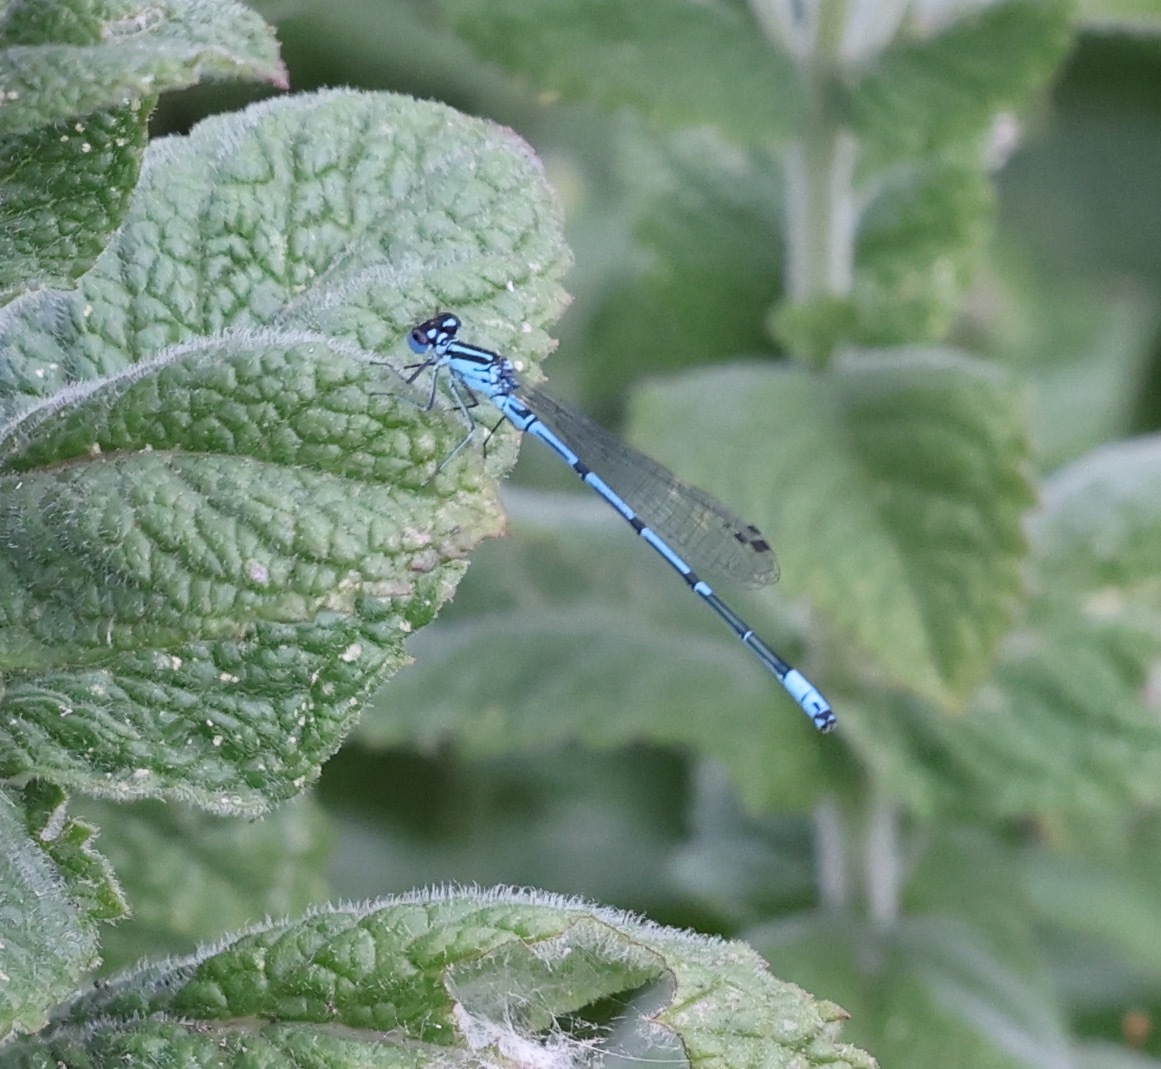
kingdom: Animalia
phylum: Arthropoda
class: Insecta
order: Odonata
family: Coenagrionidae
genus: Coenagrion
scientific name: Coenagrion puella
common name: Azure damselfly
